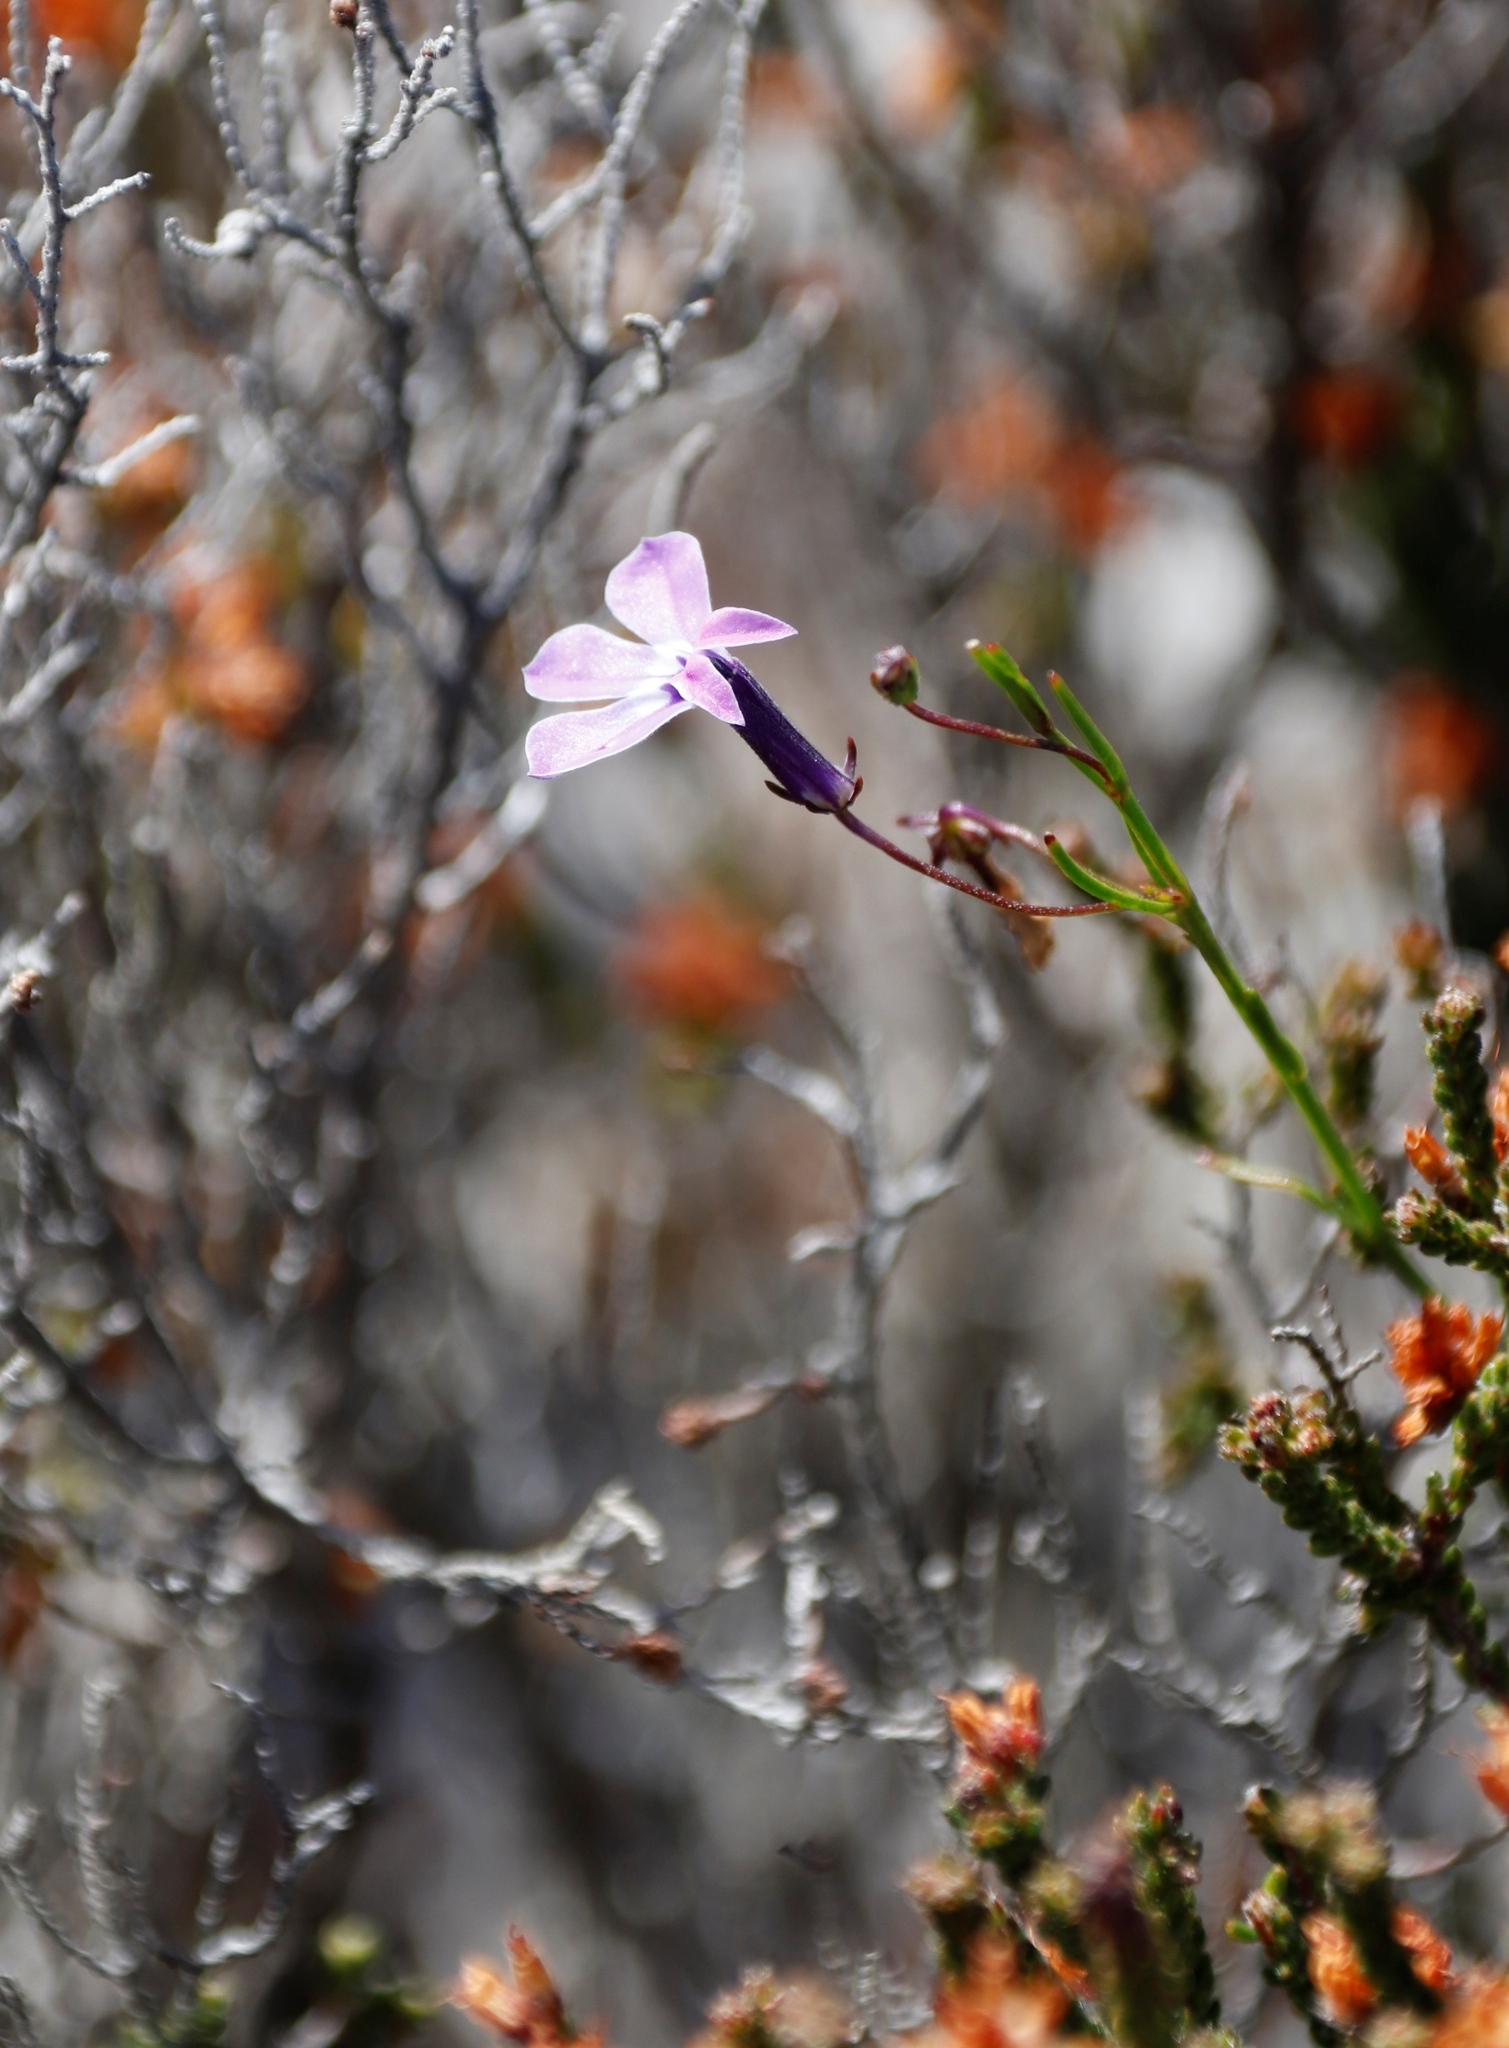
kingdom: Plantae
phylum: Tracheophyta
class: Magnoliopsida
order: Asterales
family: Campanulaceae
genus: Lobelia
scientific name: Lobelia setacea
